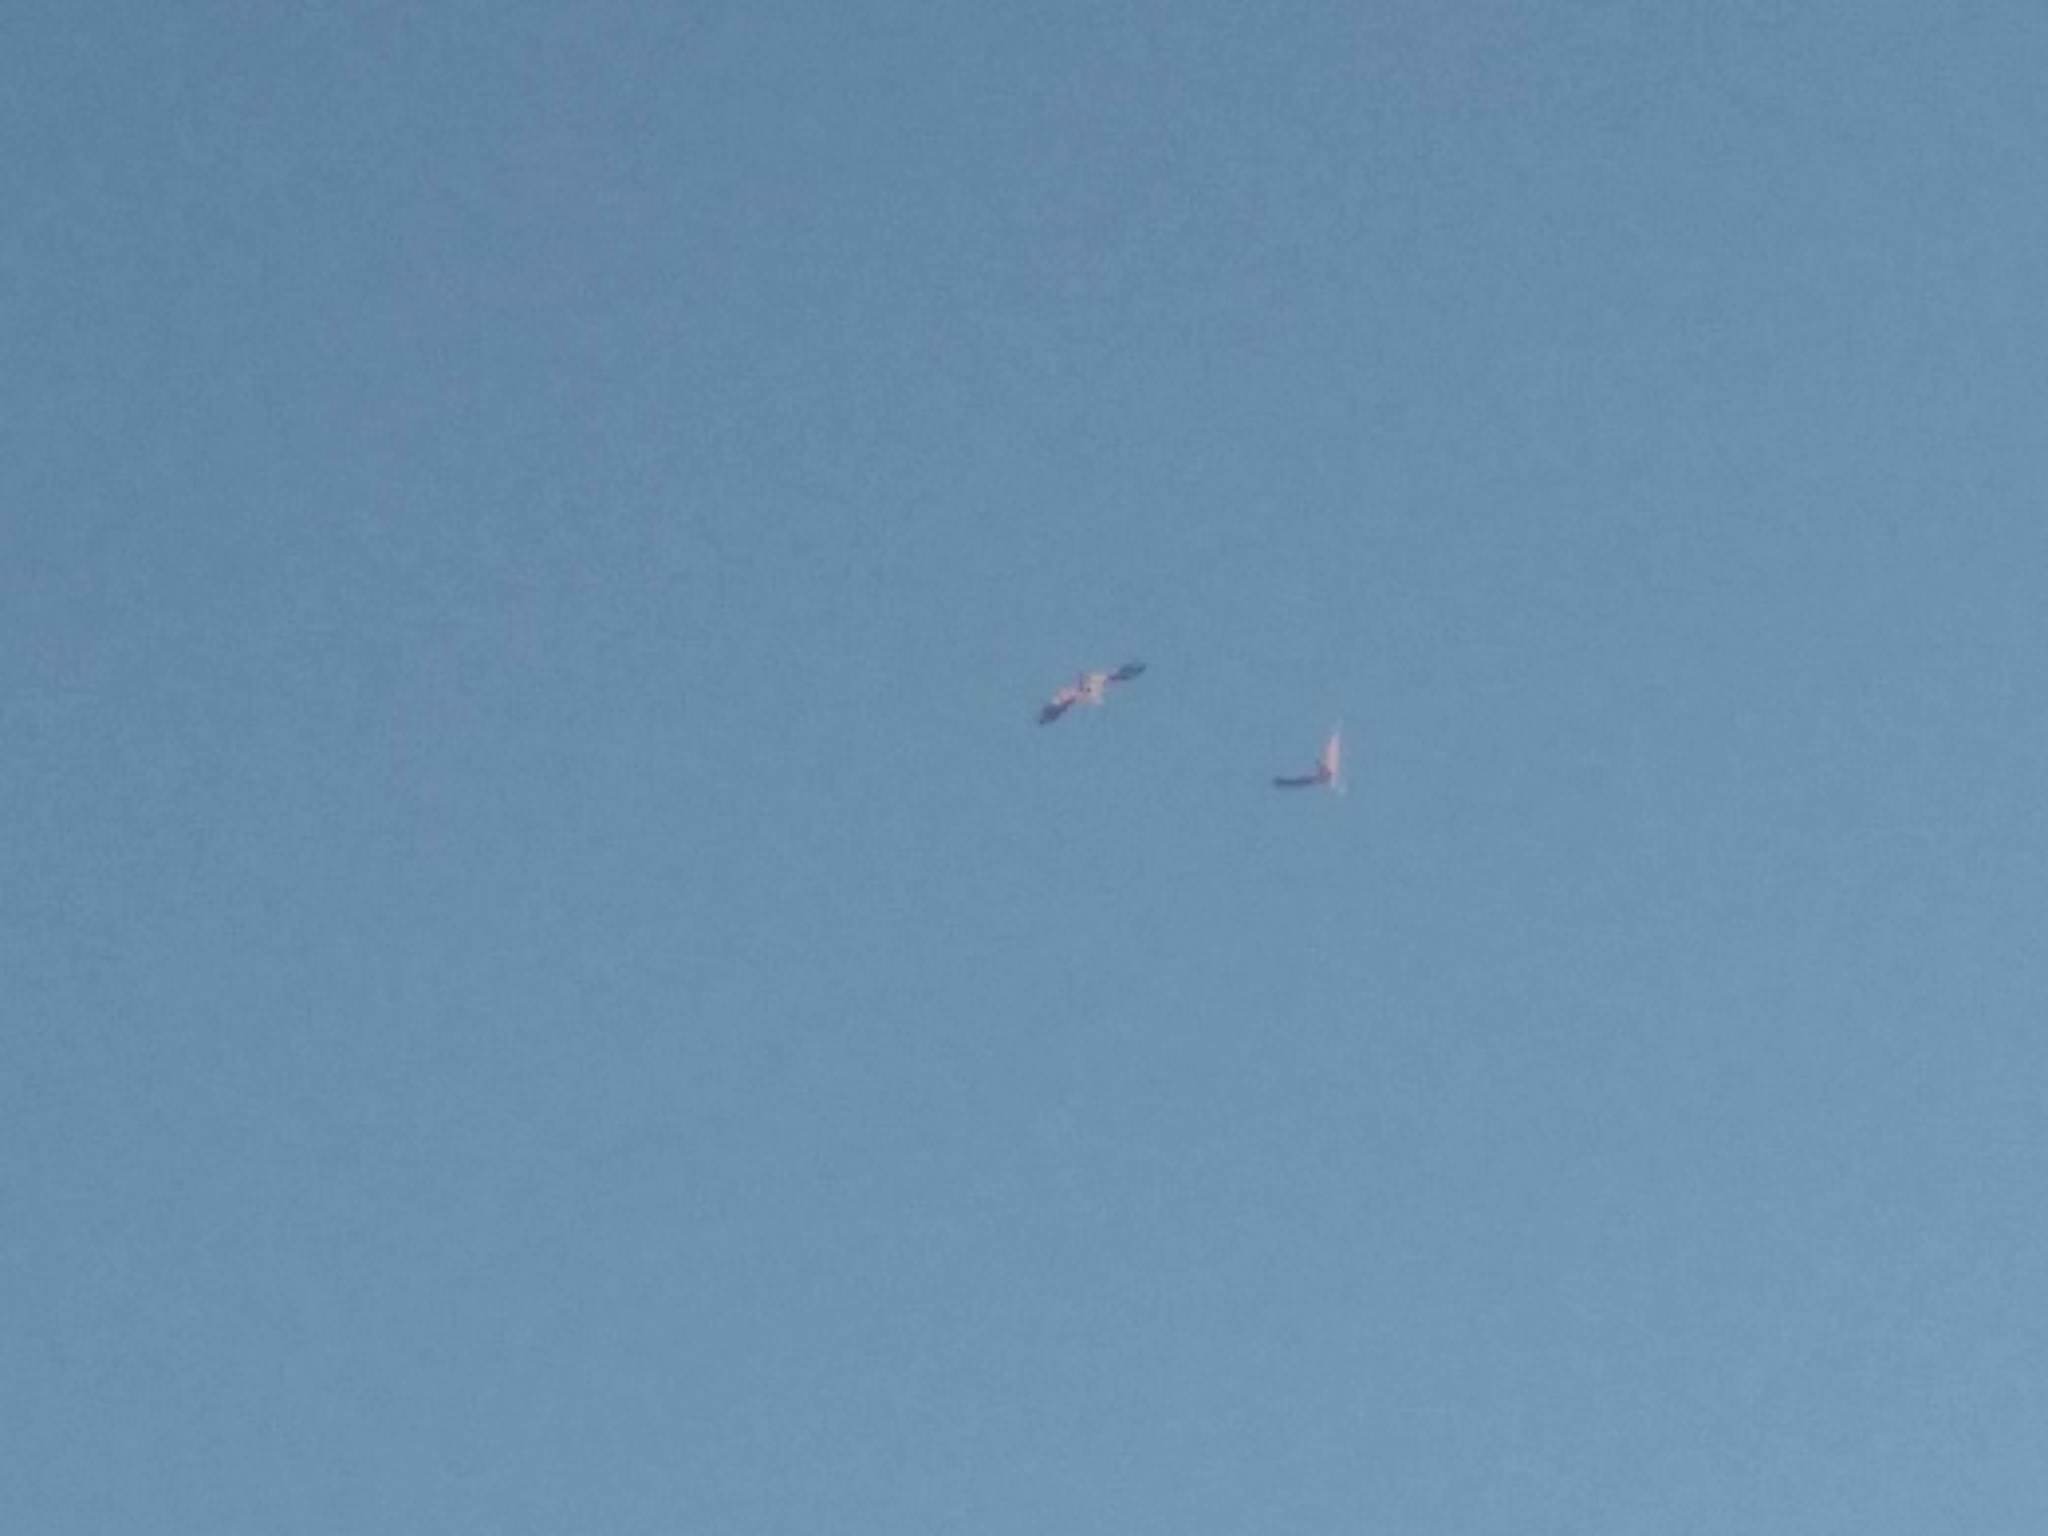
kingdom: Animalia
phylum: Chordata
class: Aves
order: Phoenicopteriformes
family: Phoenicopteridae
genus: Phoenicopterus
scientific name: Phoenicopterus roseus
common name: Greater flamingo
